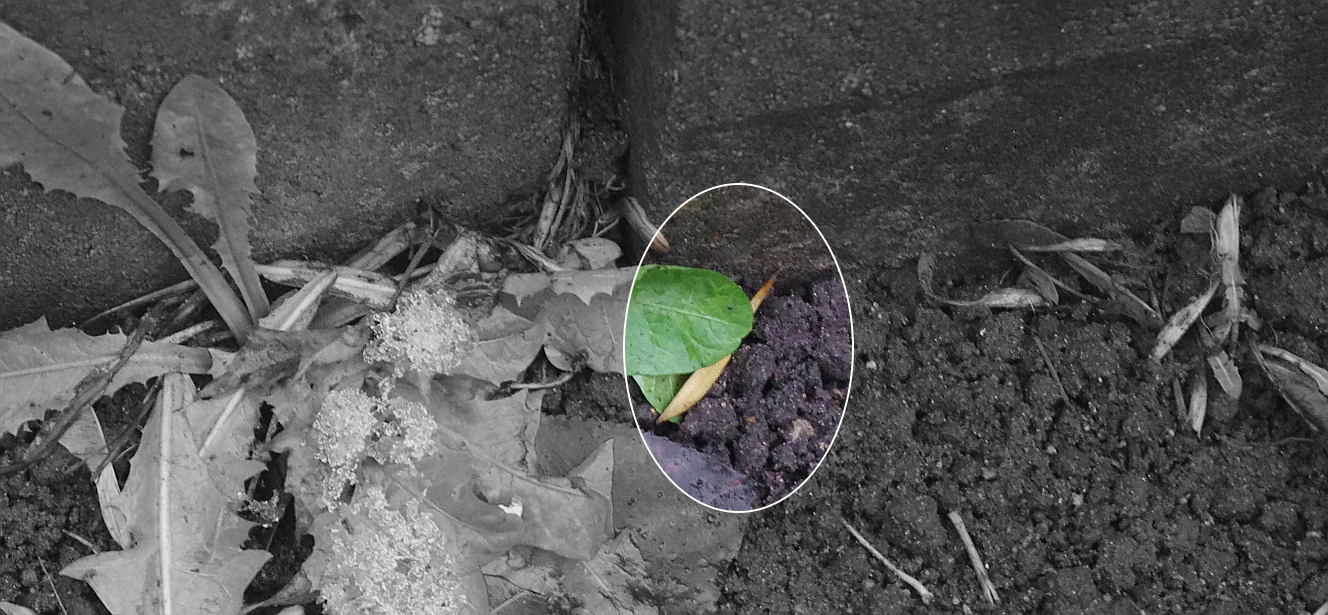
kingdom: Plantae
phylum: Tracheophyta
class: Magnoliopsida
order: Lamiales
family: Oleaceae
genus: Fraxinus
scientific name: Fraxinus pennsylvanica
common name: Green ash
